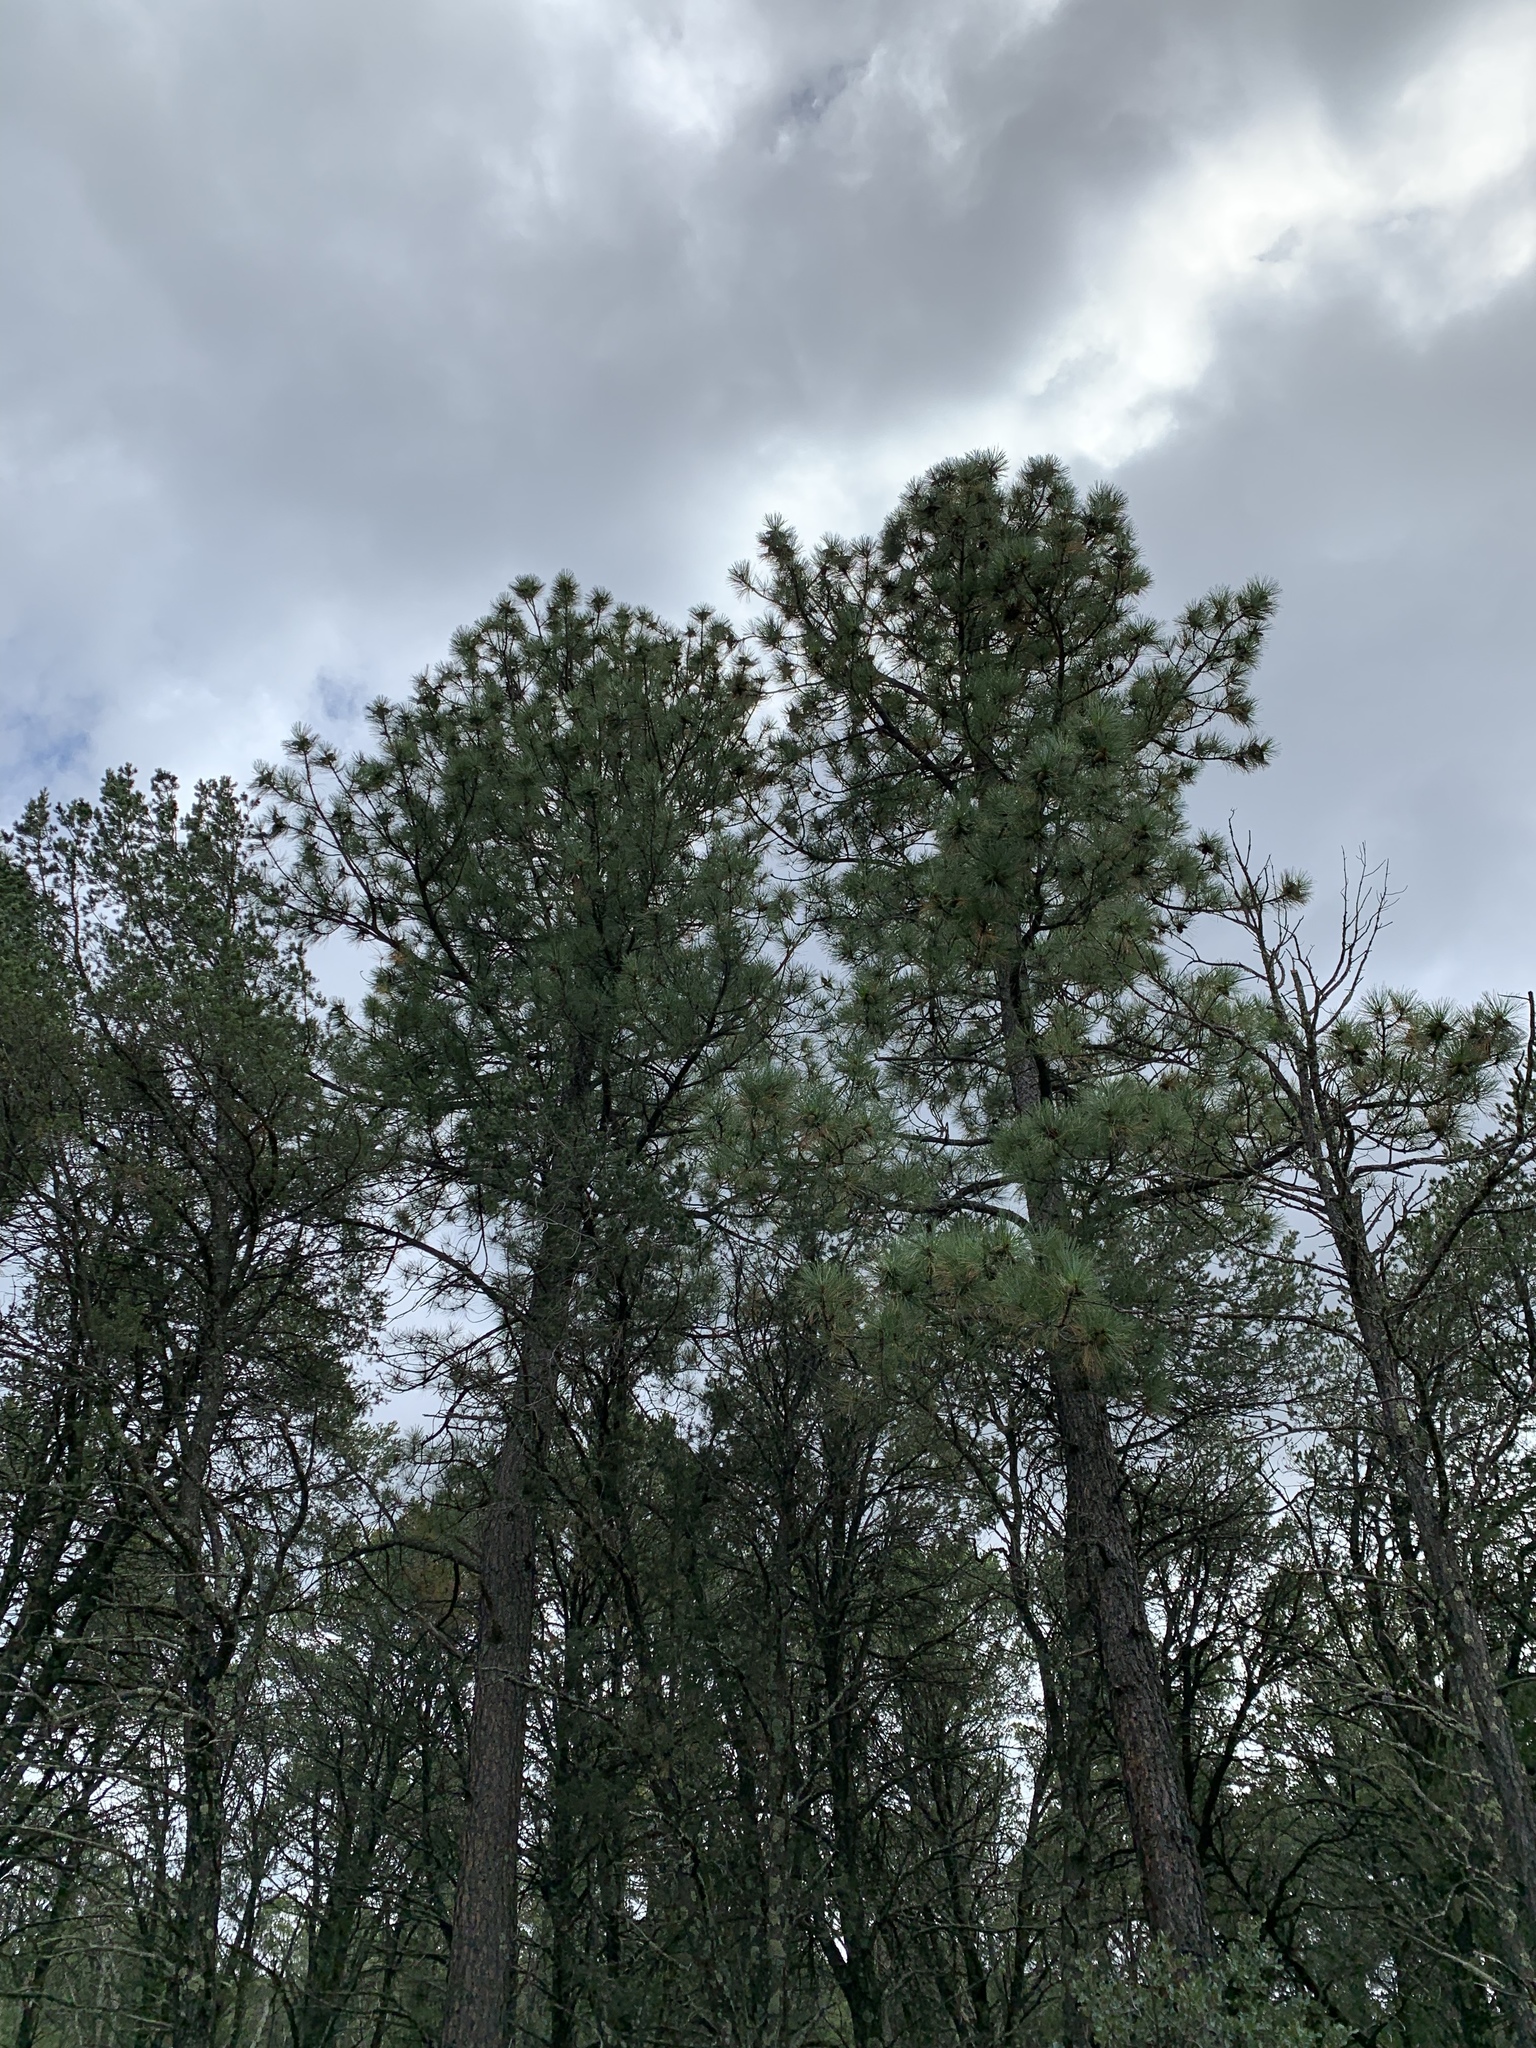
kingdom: Plantae
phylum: Tracheophyta
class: Pinopsida
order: Pinales
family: Pinaceae
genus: Pinus
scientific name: Pinus ponderosa
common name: Western yellow-pine
